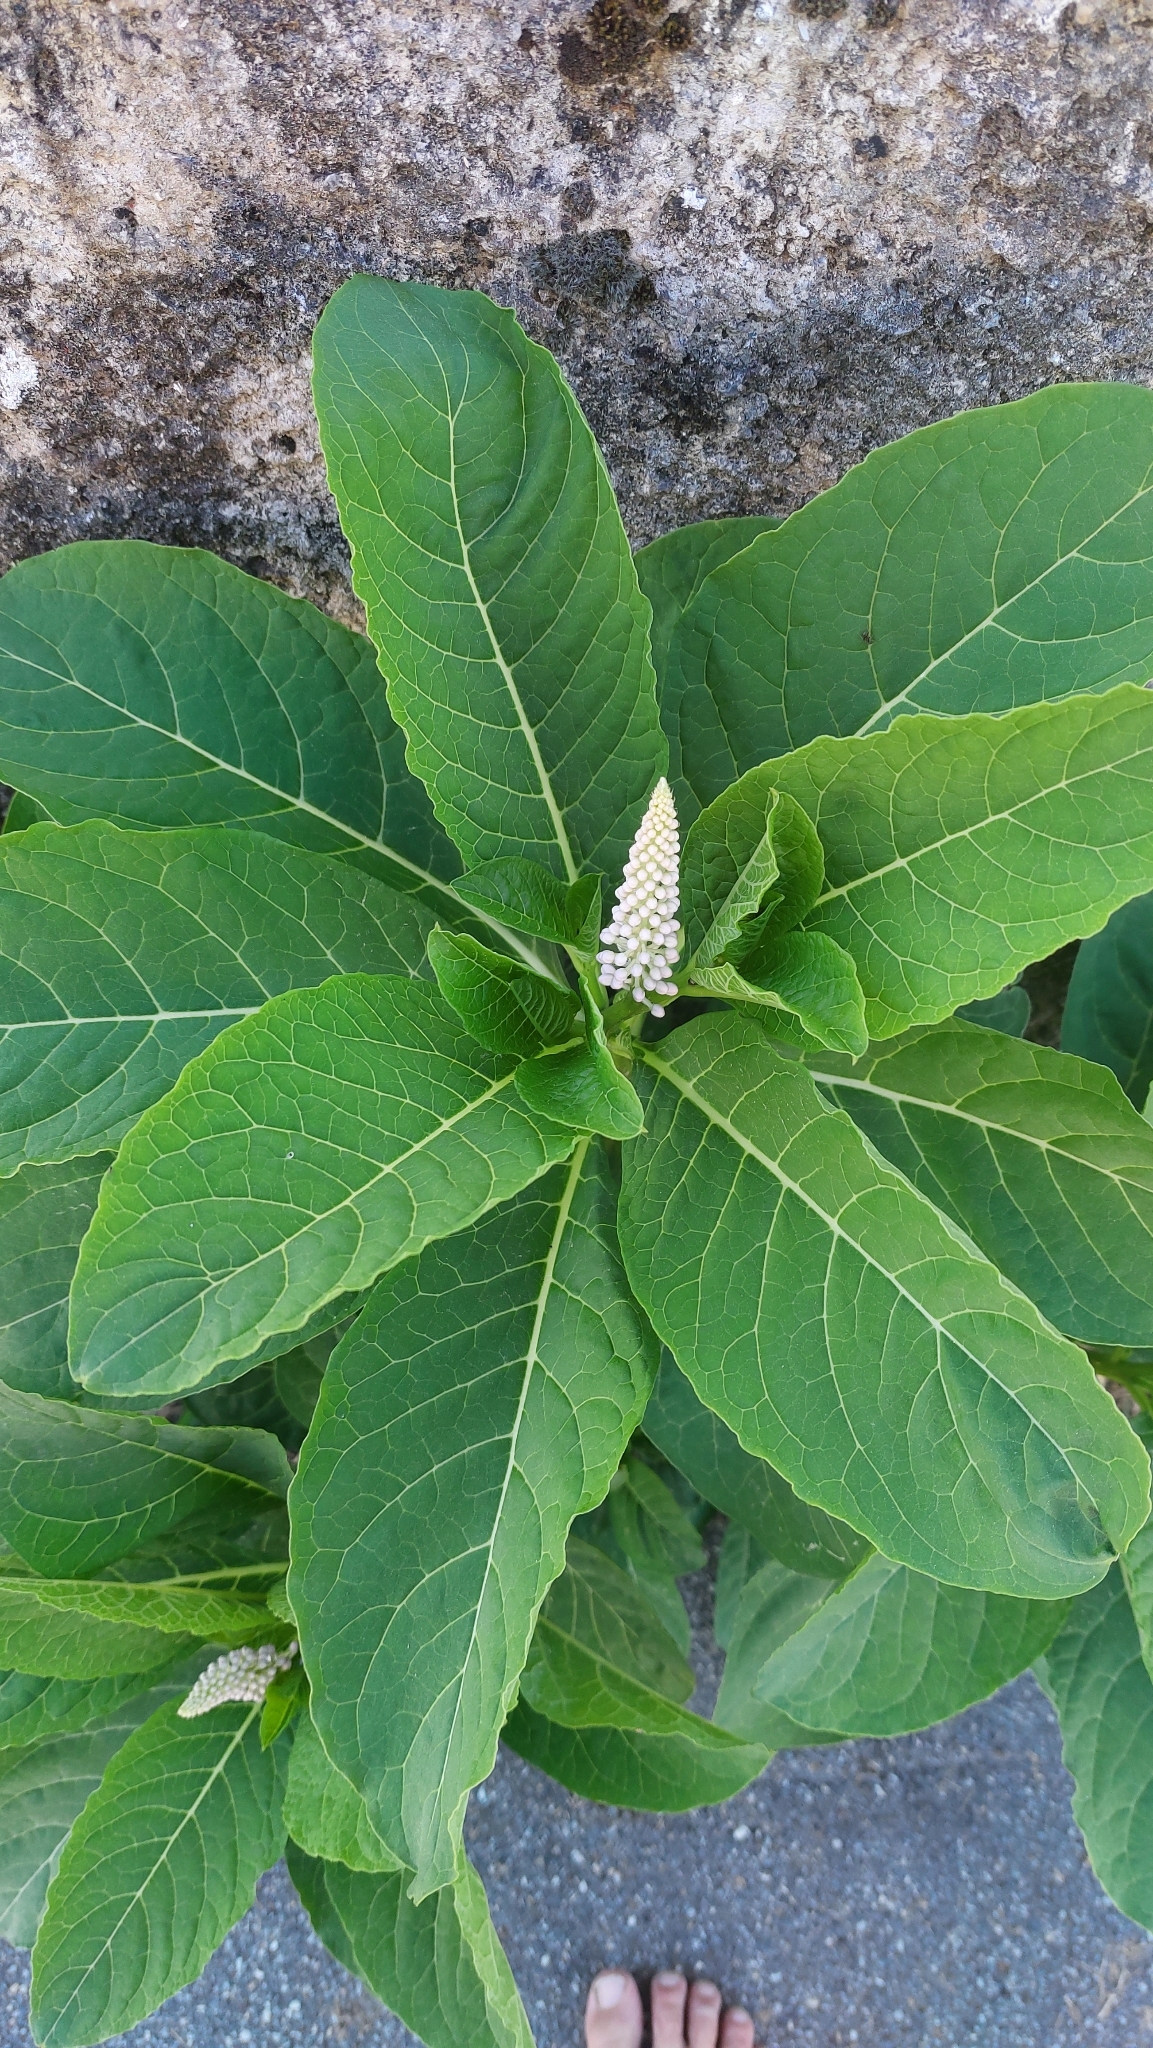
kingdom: Plantae
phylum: Tracheophyta
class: Magnoliopsida
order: Caryophyllales
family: Phytolaccaceae
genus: Phytolacca
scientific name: Phytolacca acinosa
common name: Indian pokeweed
